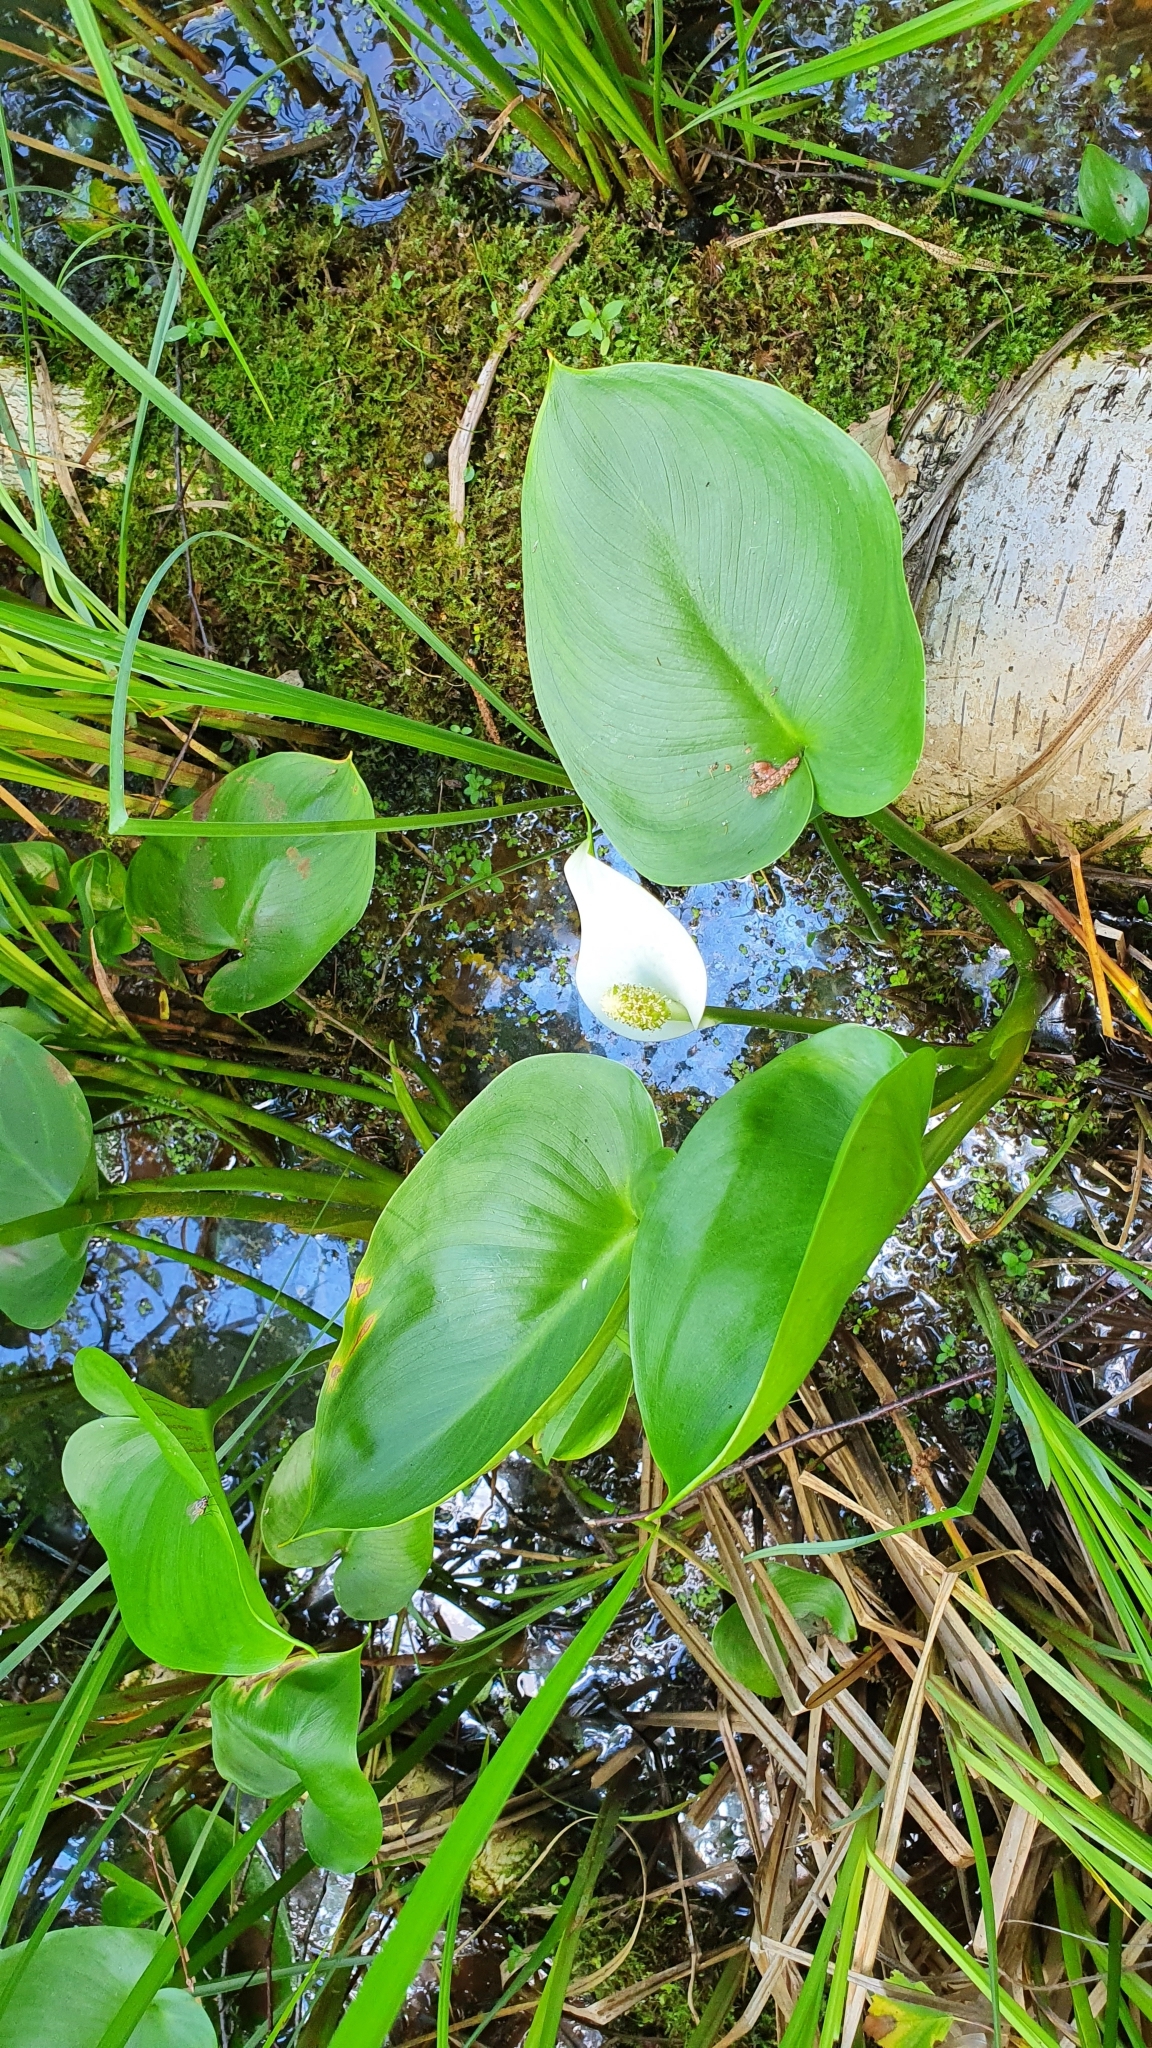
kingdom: Plantae
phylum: Tracheophyta
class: Liliopsida
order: Alismatales
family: Araceae
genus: Calla
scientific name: Calla palustris
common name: Bog arum
